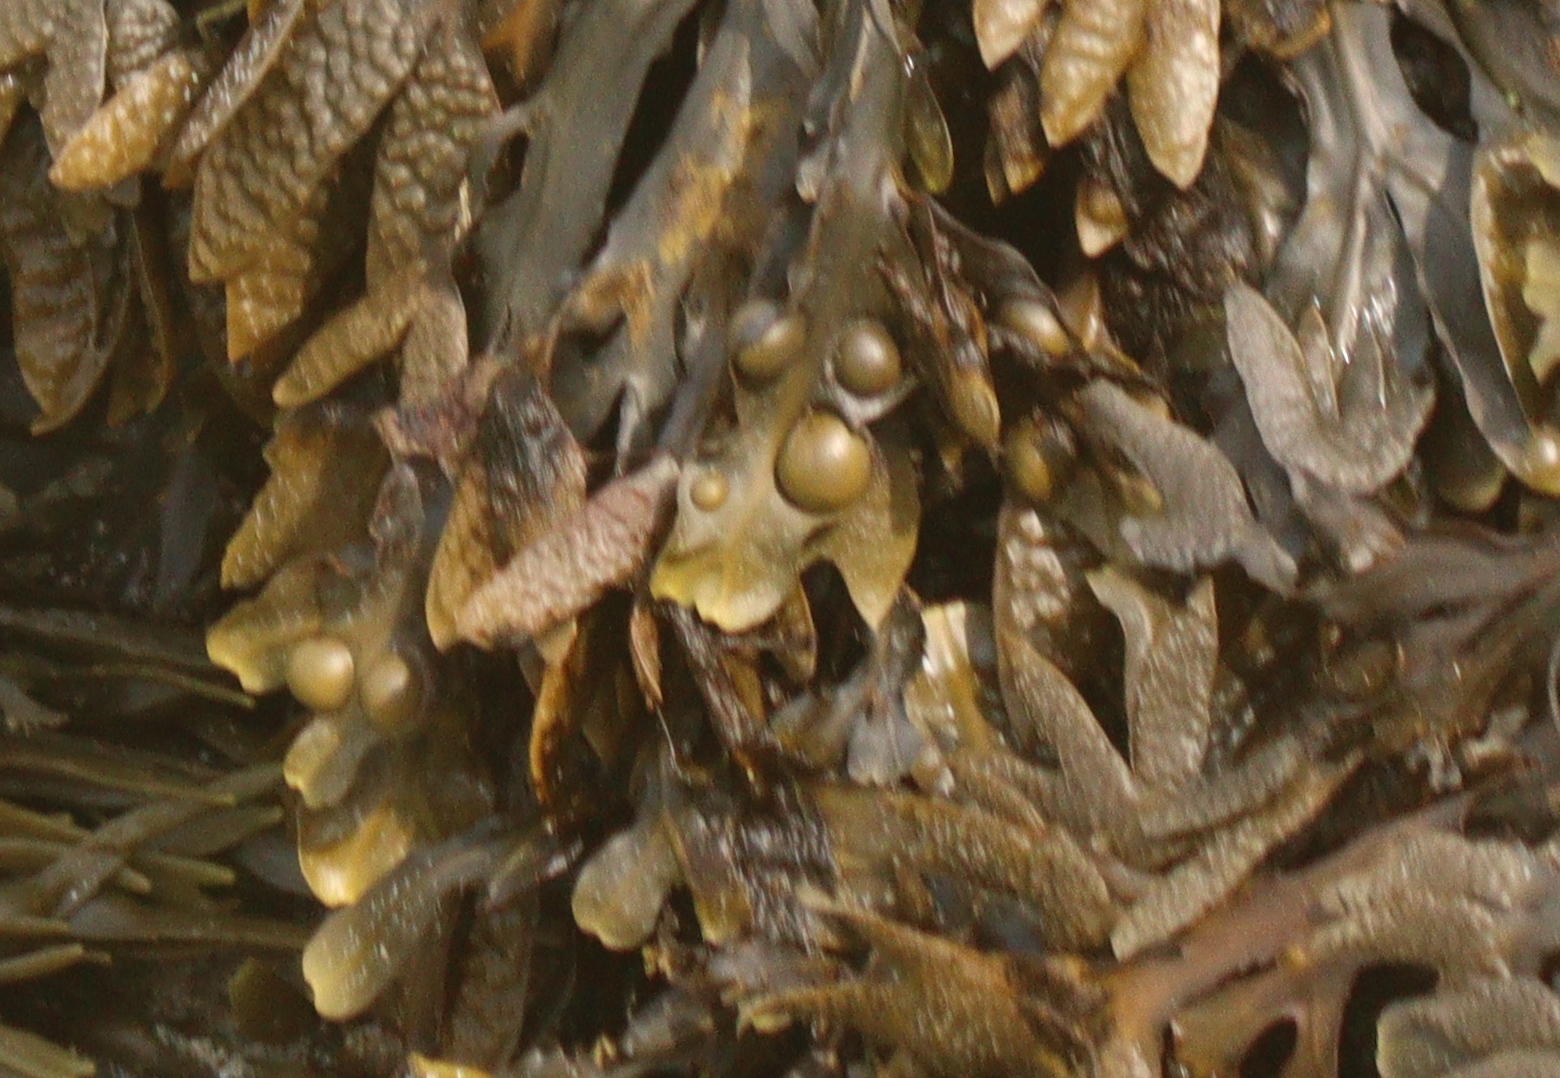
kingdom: Chromista
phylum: Ochrophyta
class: Phaeophyceae
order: Fucales
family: Fucaceae
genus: Fucus
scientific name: Fucus vesiculosus
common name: Bladder wrack
